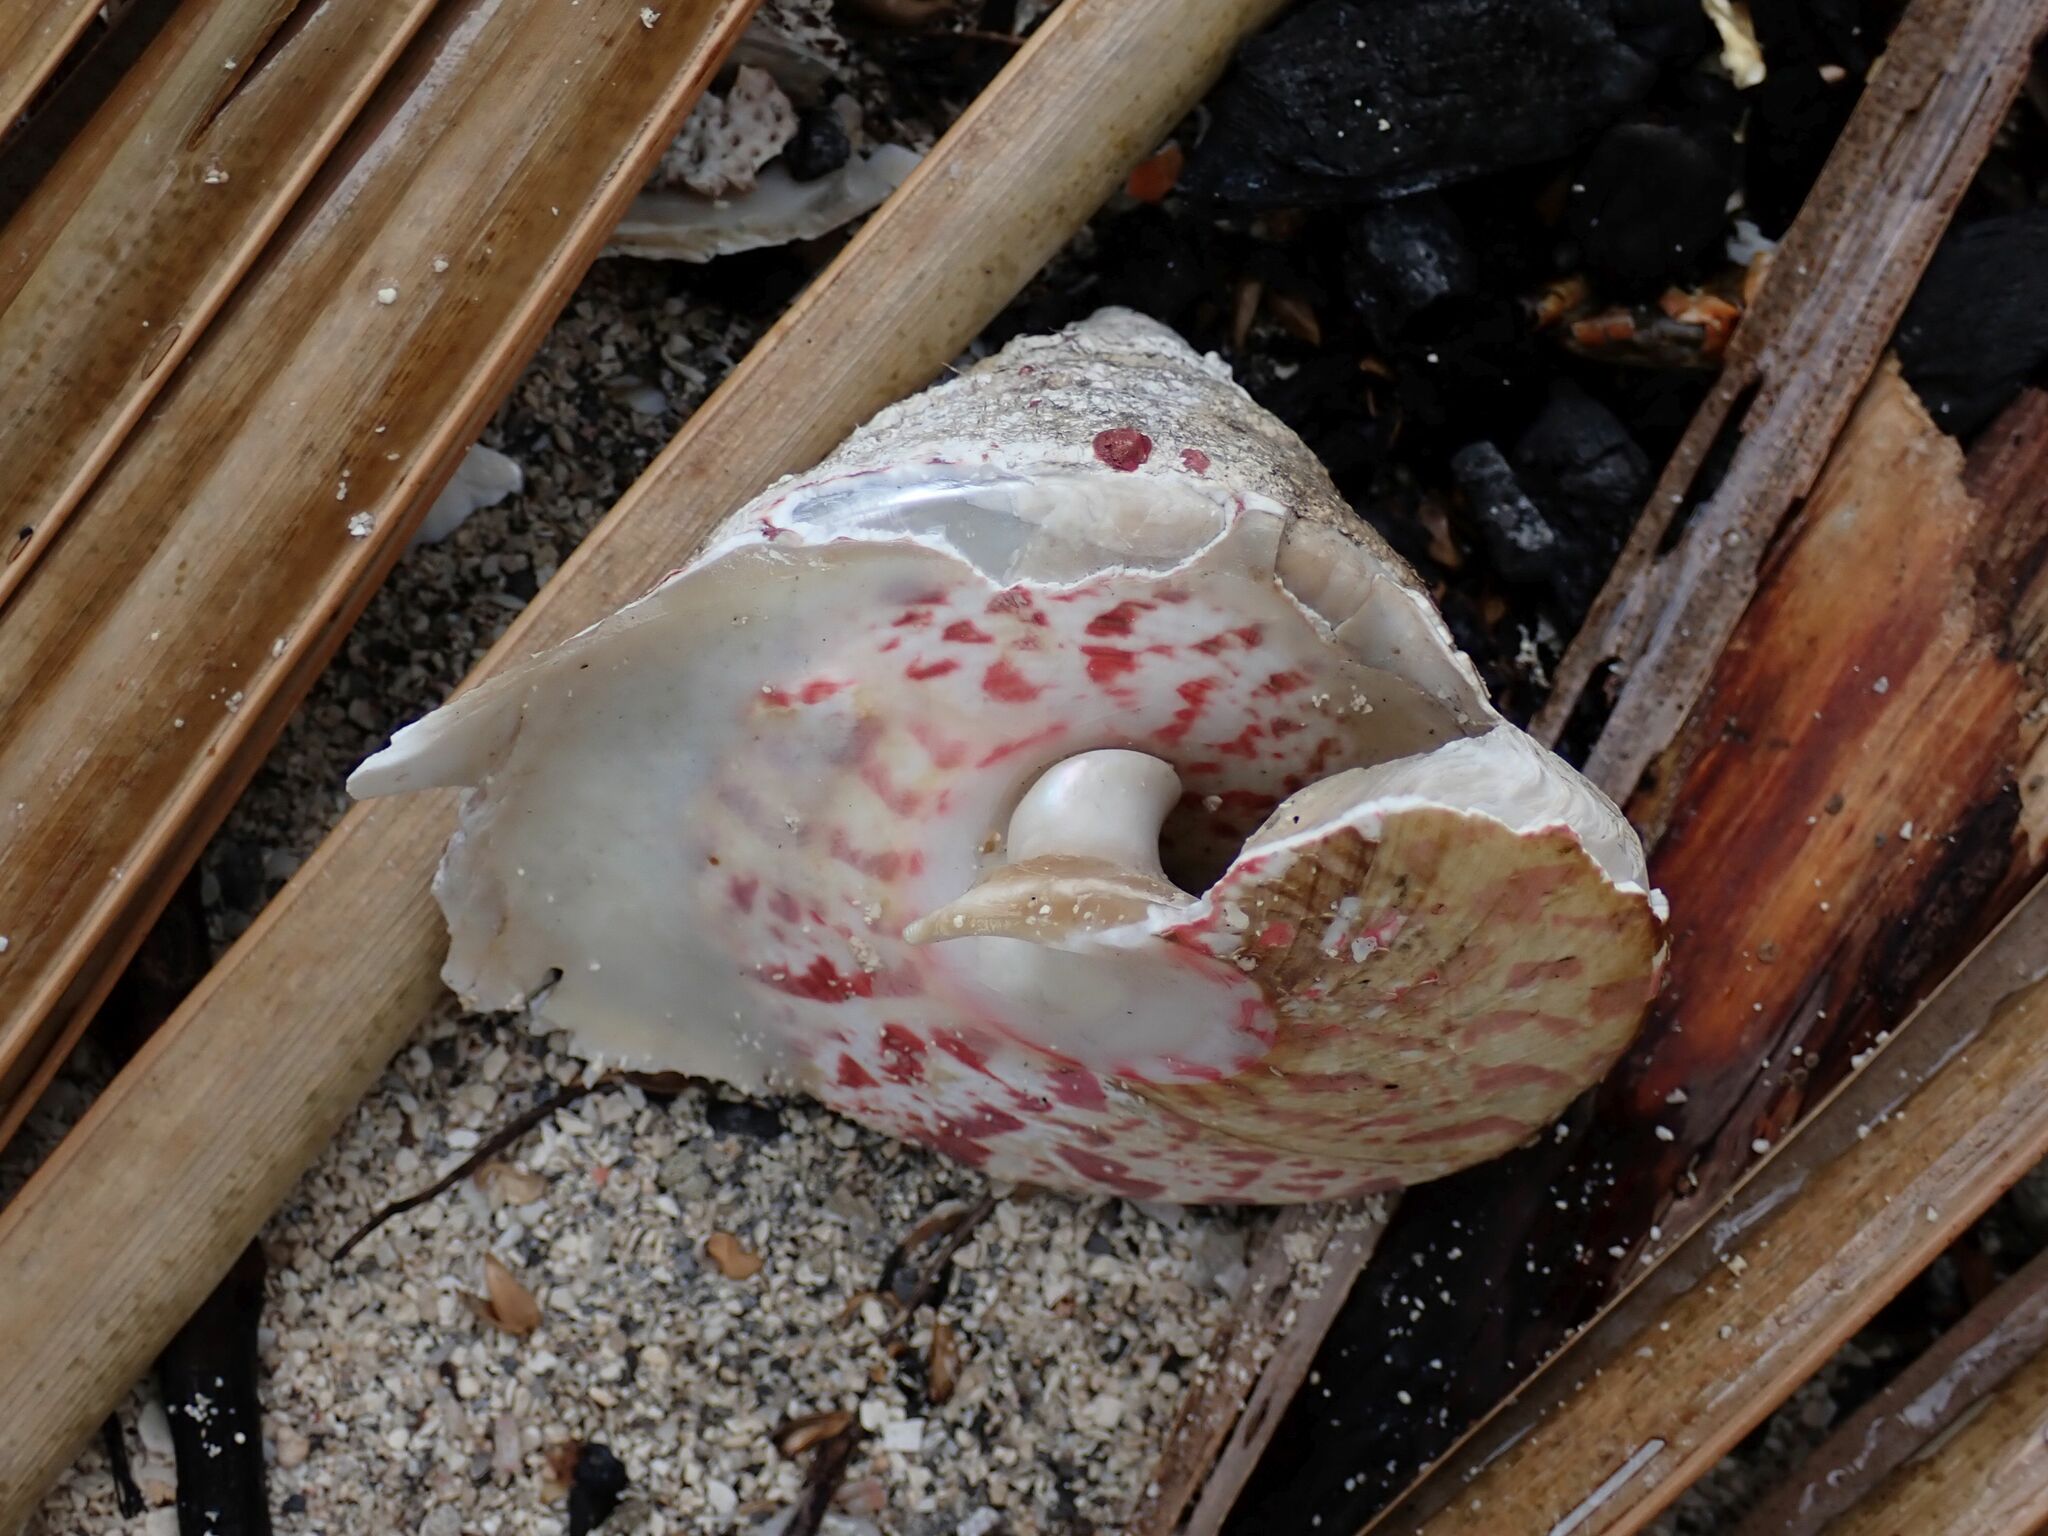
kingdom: Animalia
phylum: Mollusca
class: Gastropoda
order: Trochida
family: Tegulidae
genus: Rochia
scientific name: Rochia nilotica
